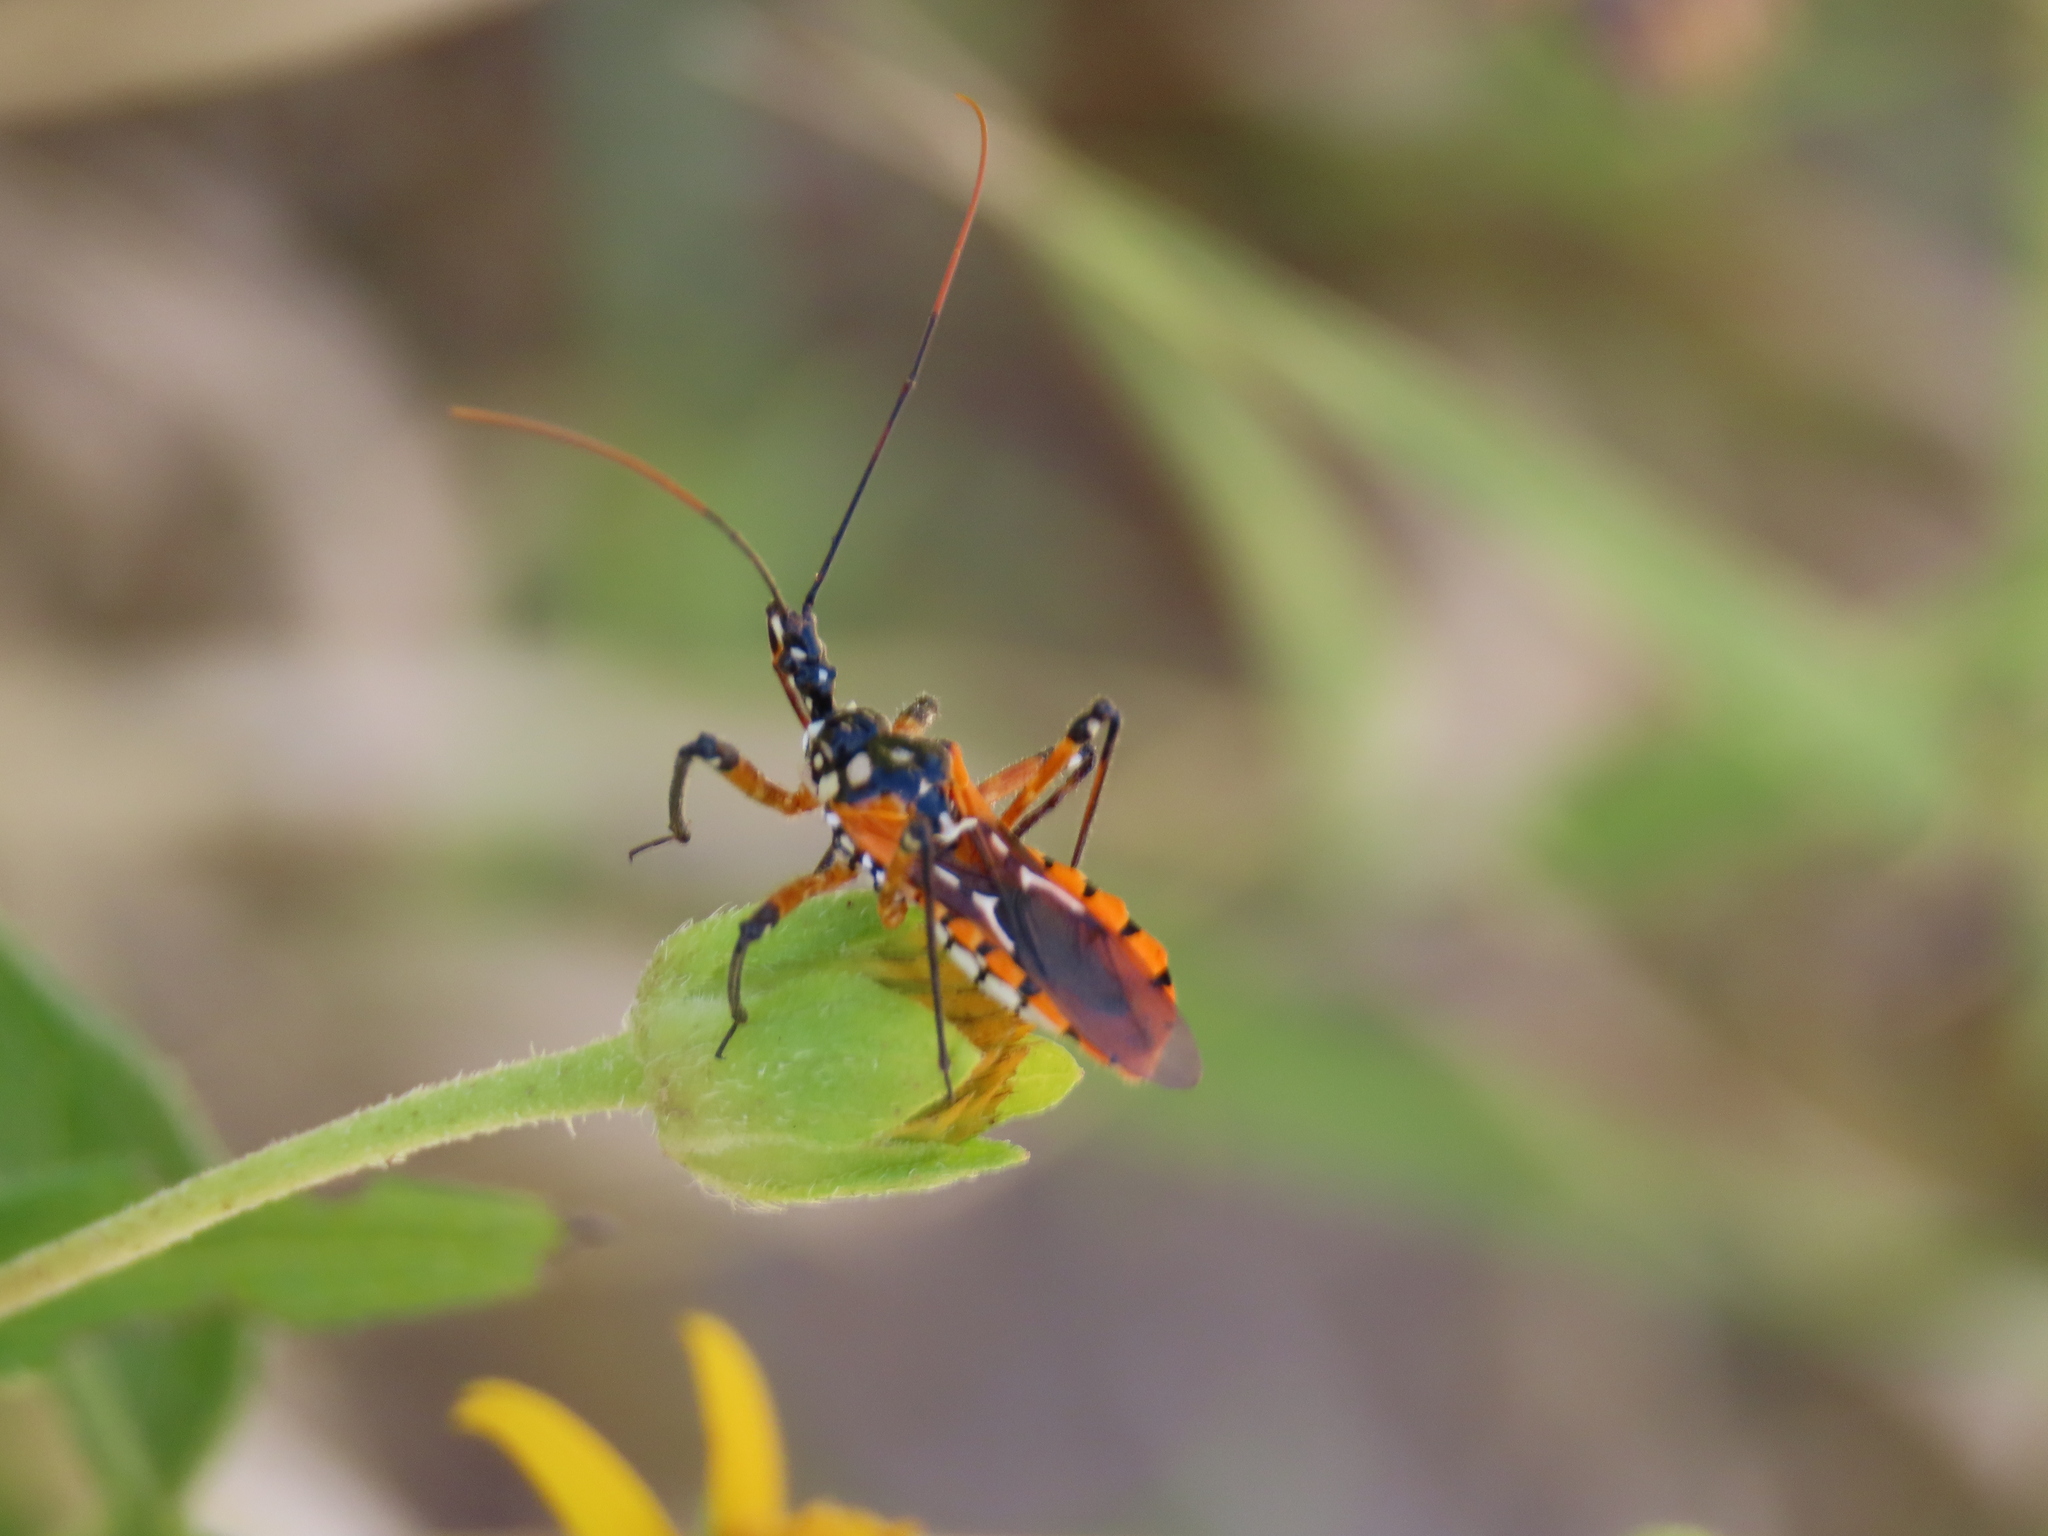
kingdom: Animalia
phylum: Arthropoda
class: Insecta
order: Hemiptera
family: Reduviidae
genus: Cosmolestes
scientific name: Cosmolestes pictus
